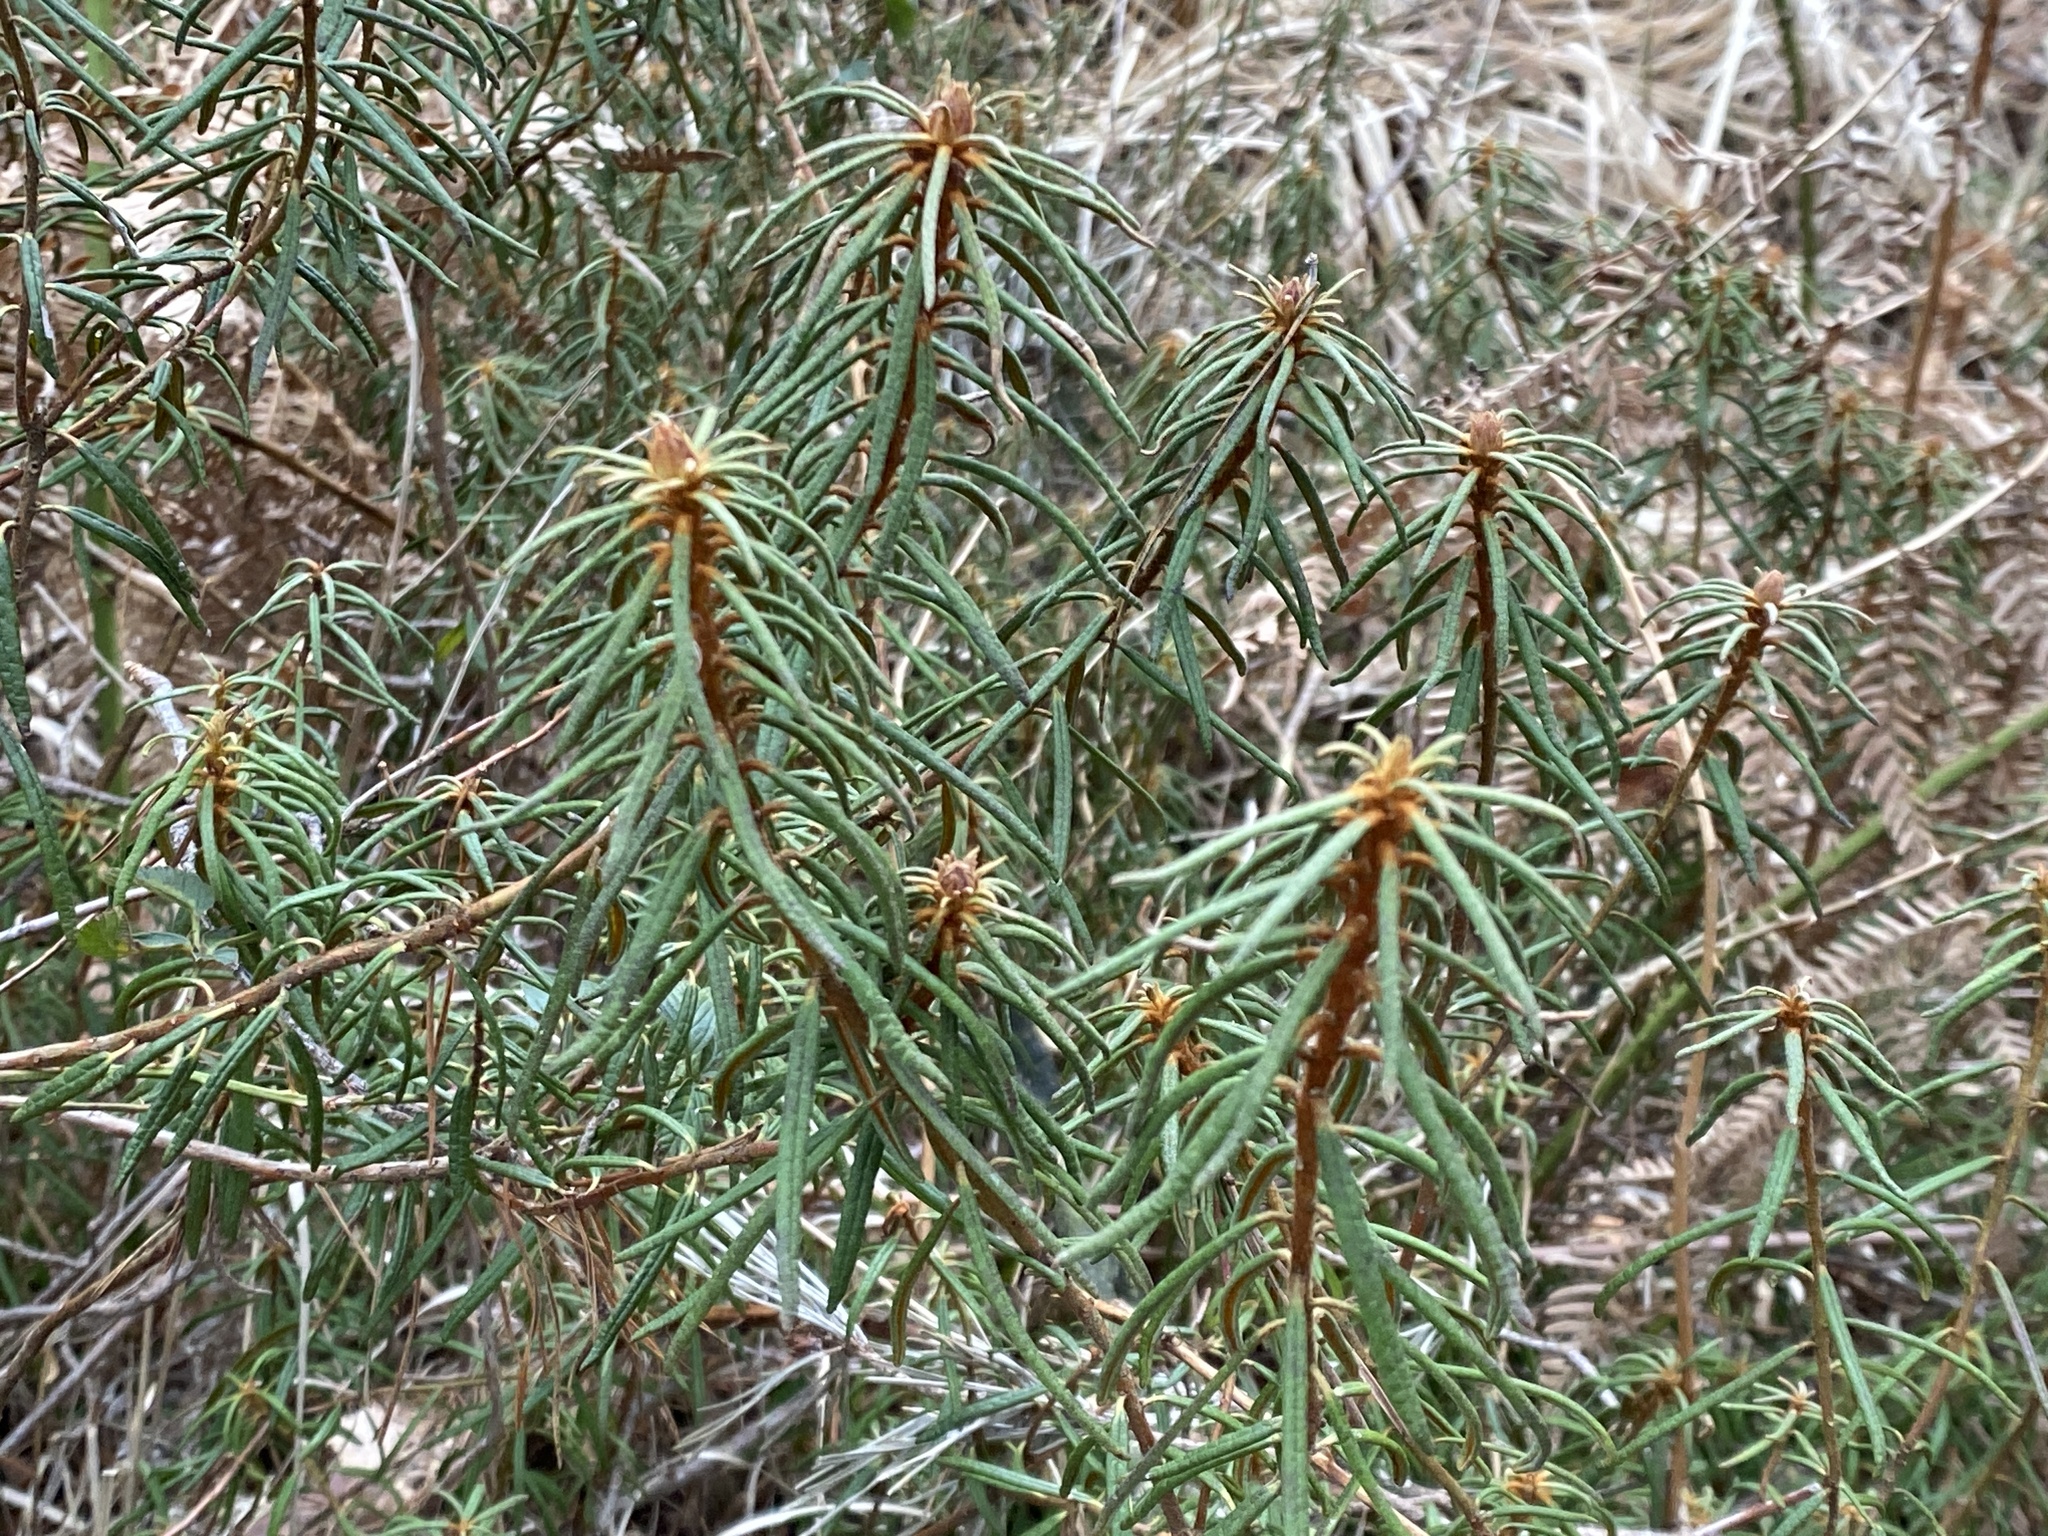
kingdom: Plantae
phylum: Tracheophyta
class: Magnoliopsida
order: Ericales
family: Ericaceae
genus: Rhododendron
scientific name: Rhododendron tomentosum
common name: Marsh labrador tea
